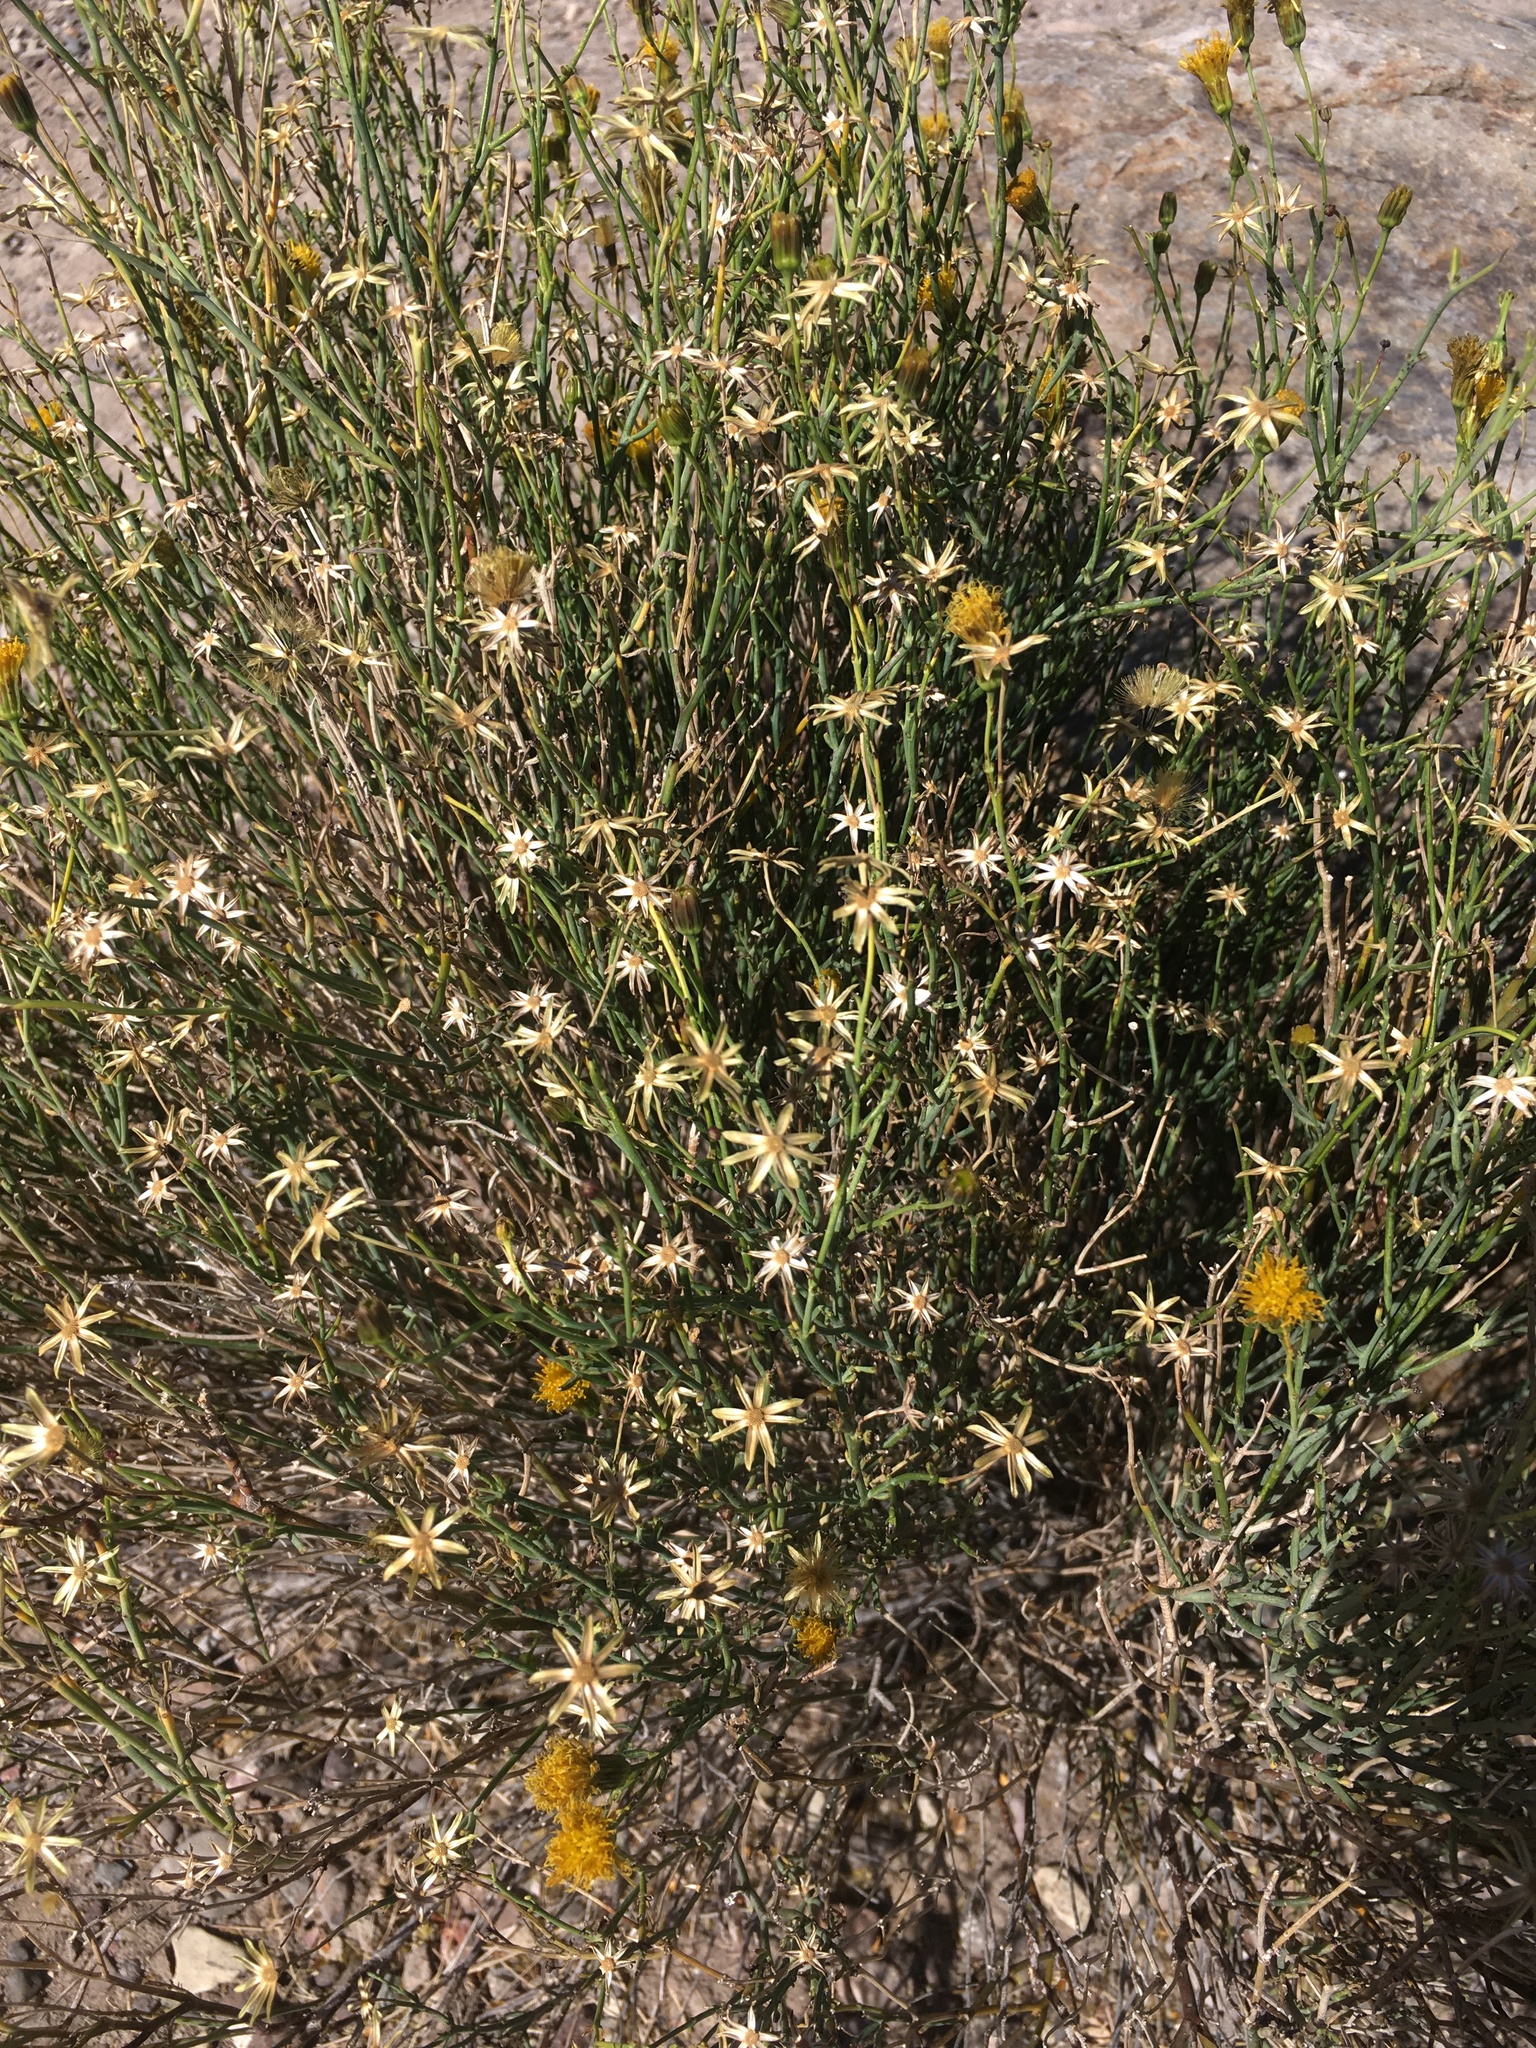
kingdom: Plantae
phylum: Tracheophyta
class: Magnoliopsida
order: Asterales
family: Asteraceae
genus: Porophyllum
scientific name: Porophyllum scoparium
